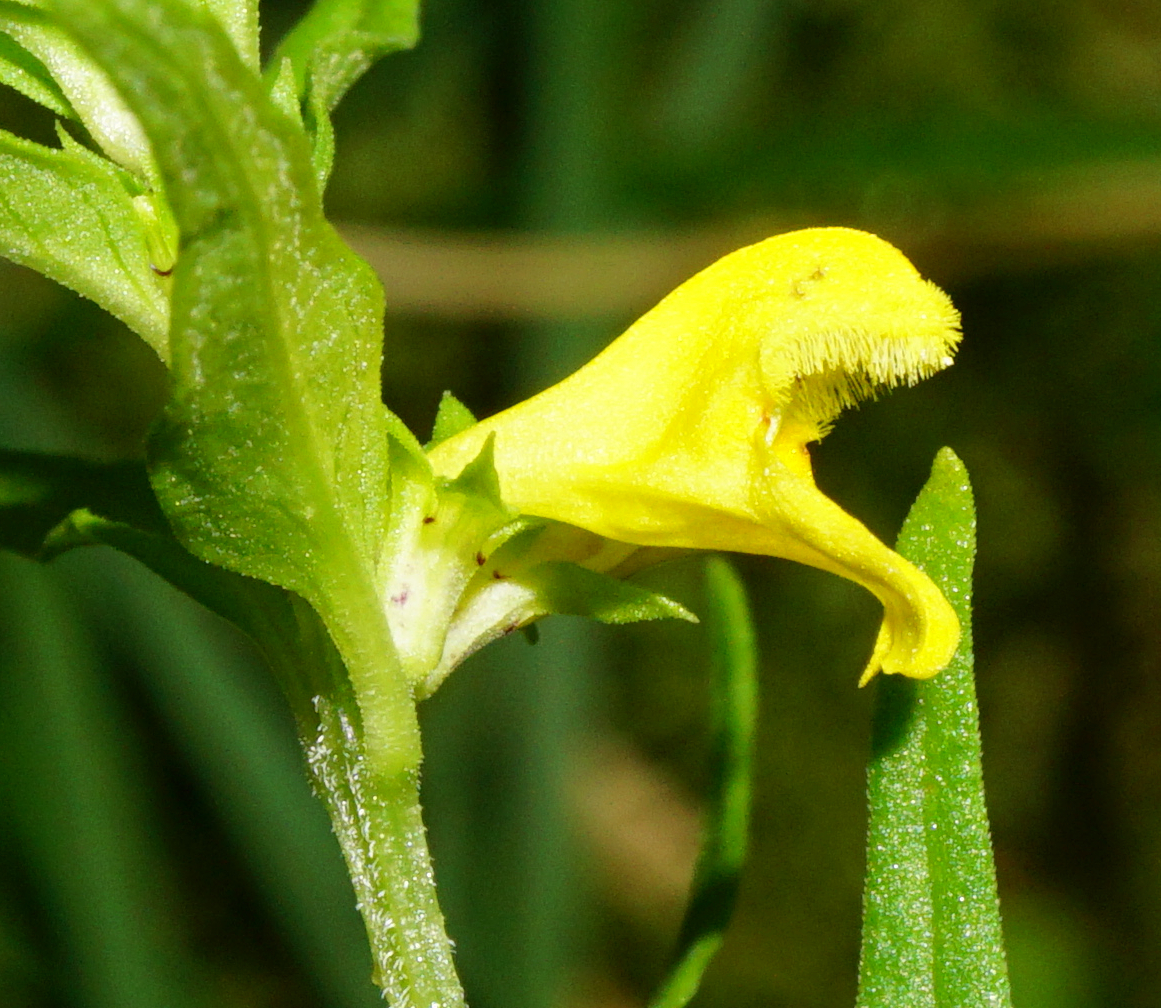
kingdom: Plantae
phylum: Tracheophyta
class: Magnoliopsida
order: Lamiales
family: Orobanchaceae
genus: Melampyrum
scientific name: Melampyrum sylvaticum
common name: Small cow-wheat
